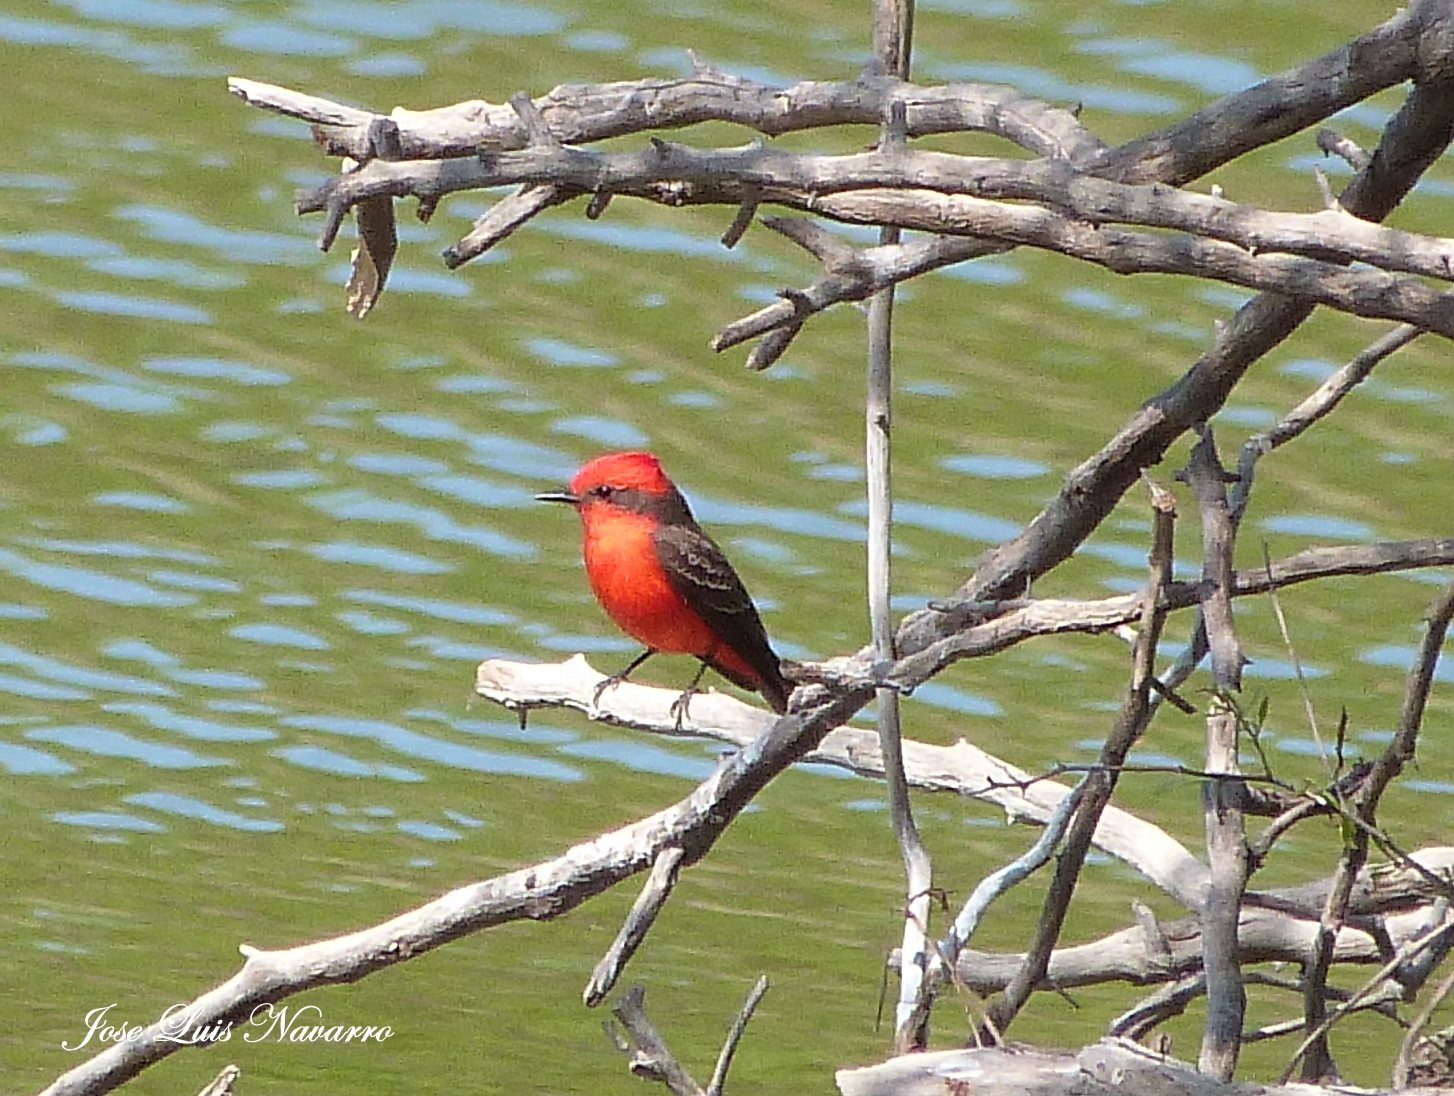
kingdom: Animalia
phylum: Chordata
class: Aves
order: Passeriformes
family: Tyrannidae
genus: Pyrocephalus
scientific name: Pyrocephalus rubinus
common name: Vermilion flycatcher
